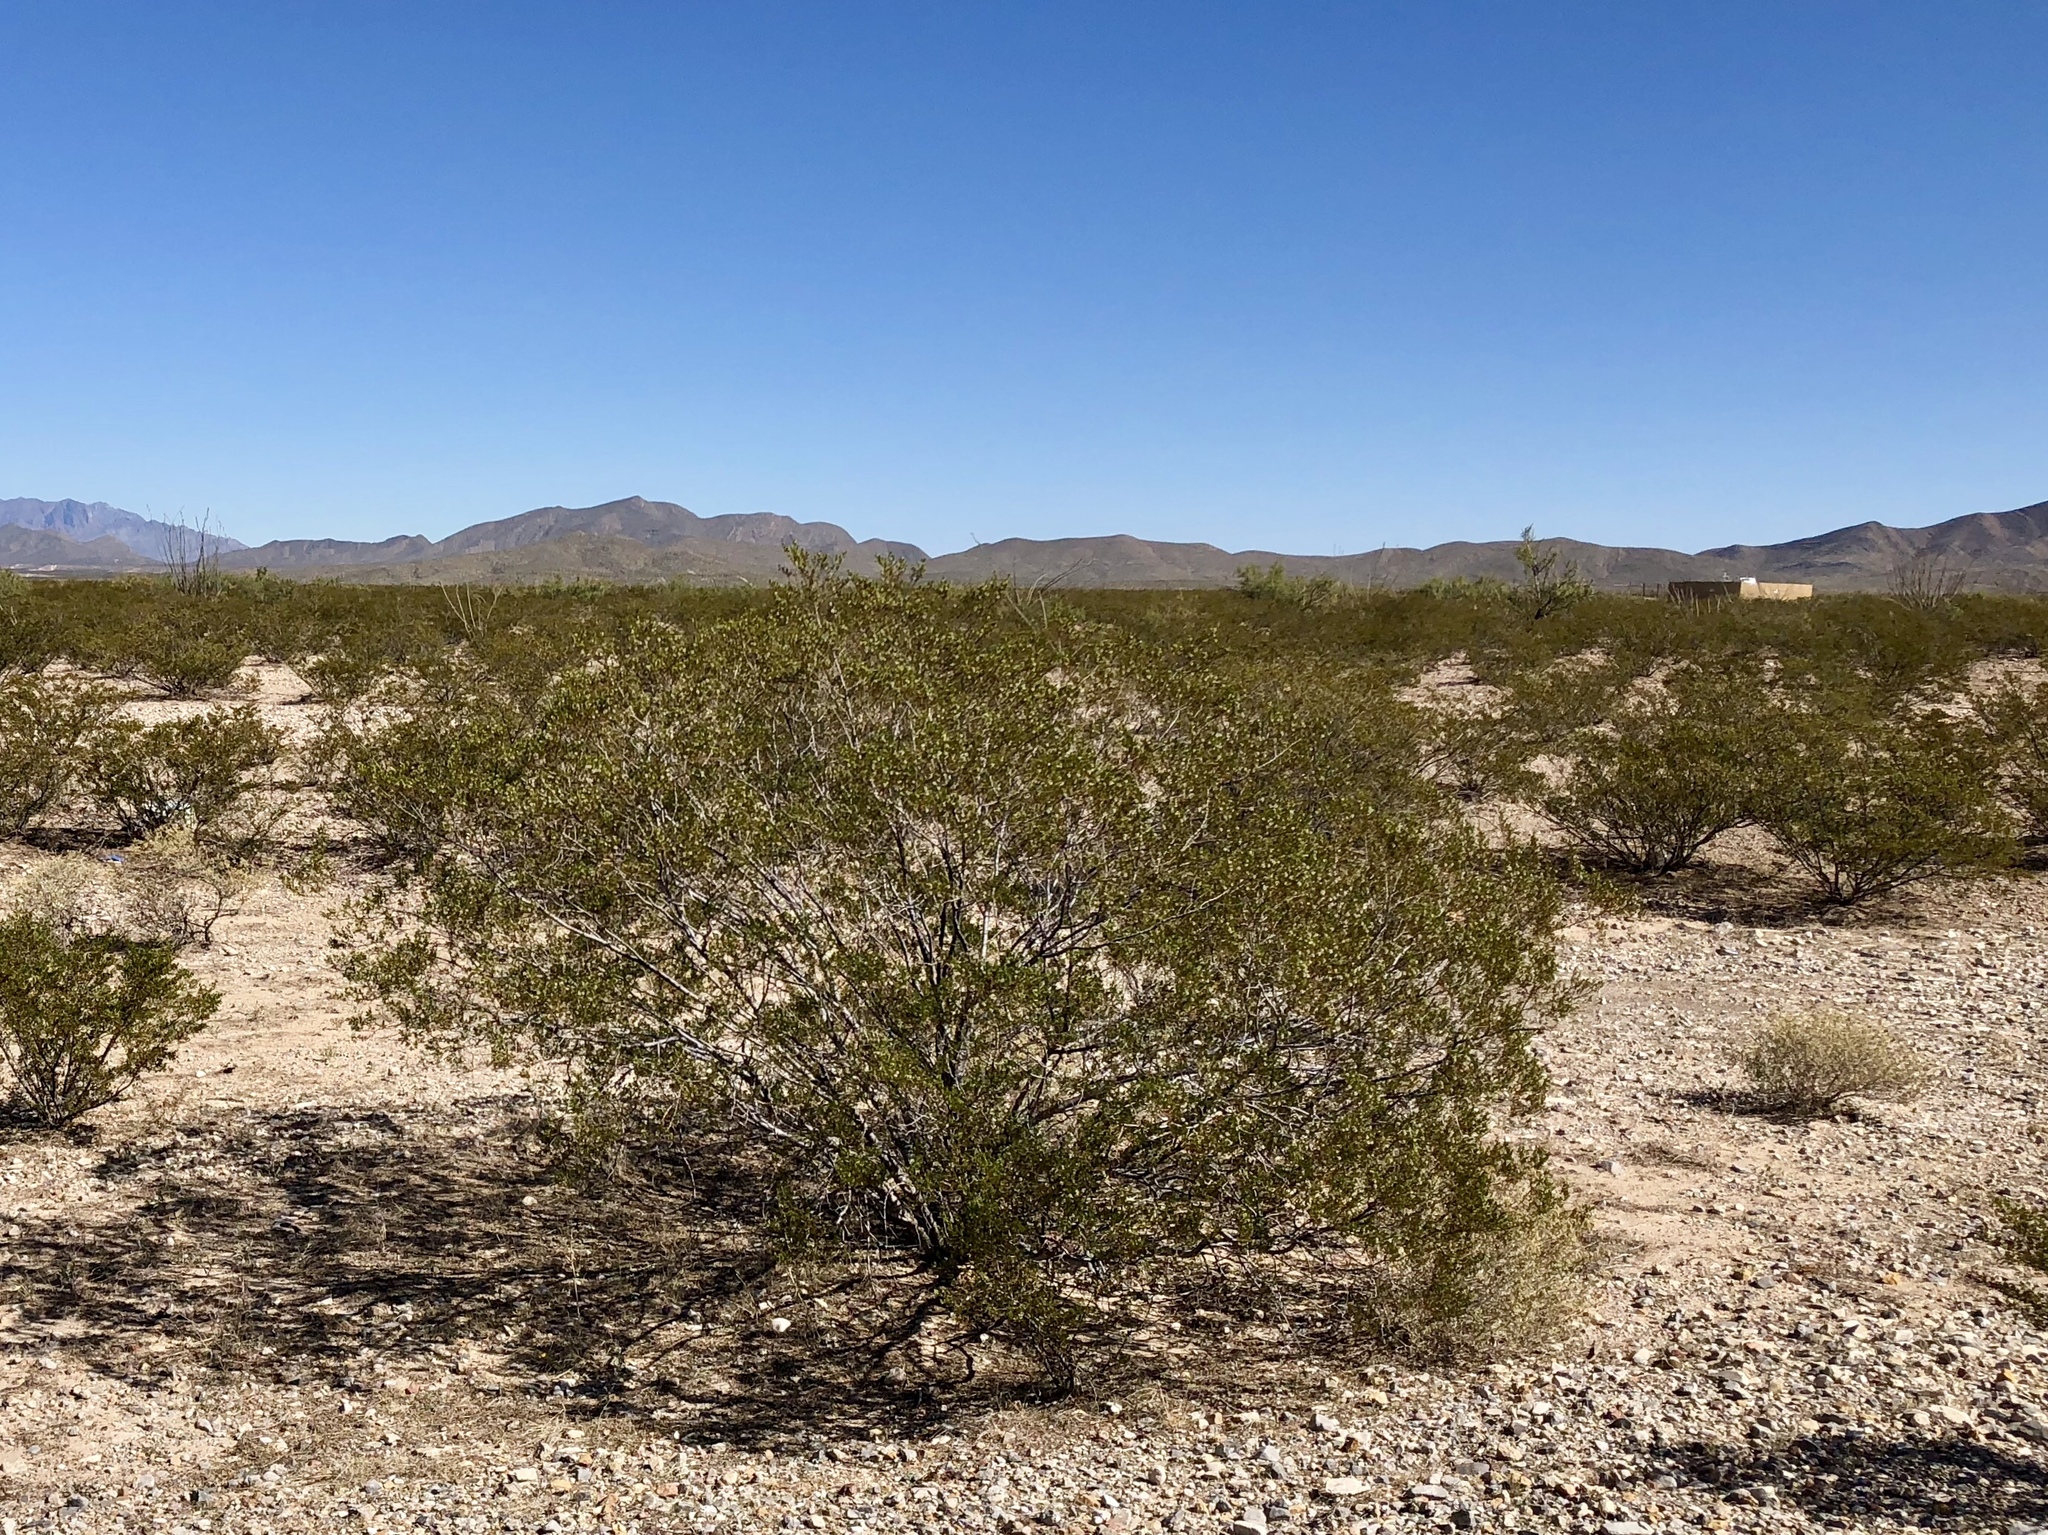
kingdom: Plantae
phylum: Tracheophyta
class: Magnoliopsida
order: Zygophyllales
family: Zygophyllaceae
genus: Larrea
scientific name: Larrea tridentata
